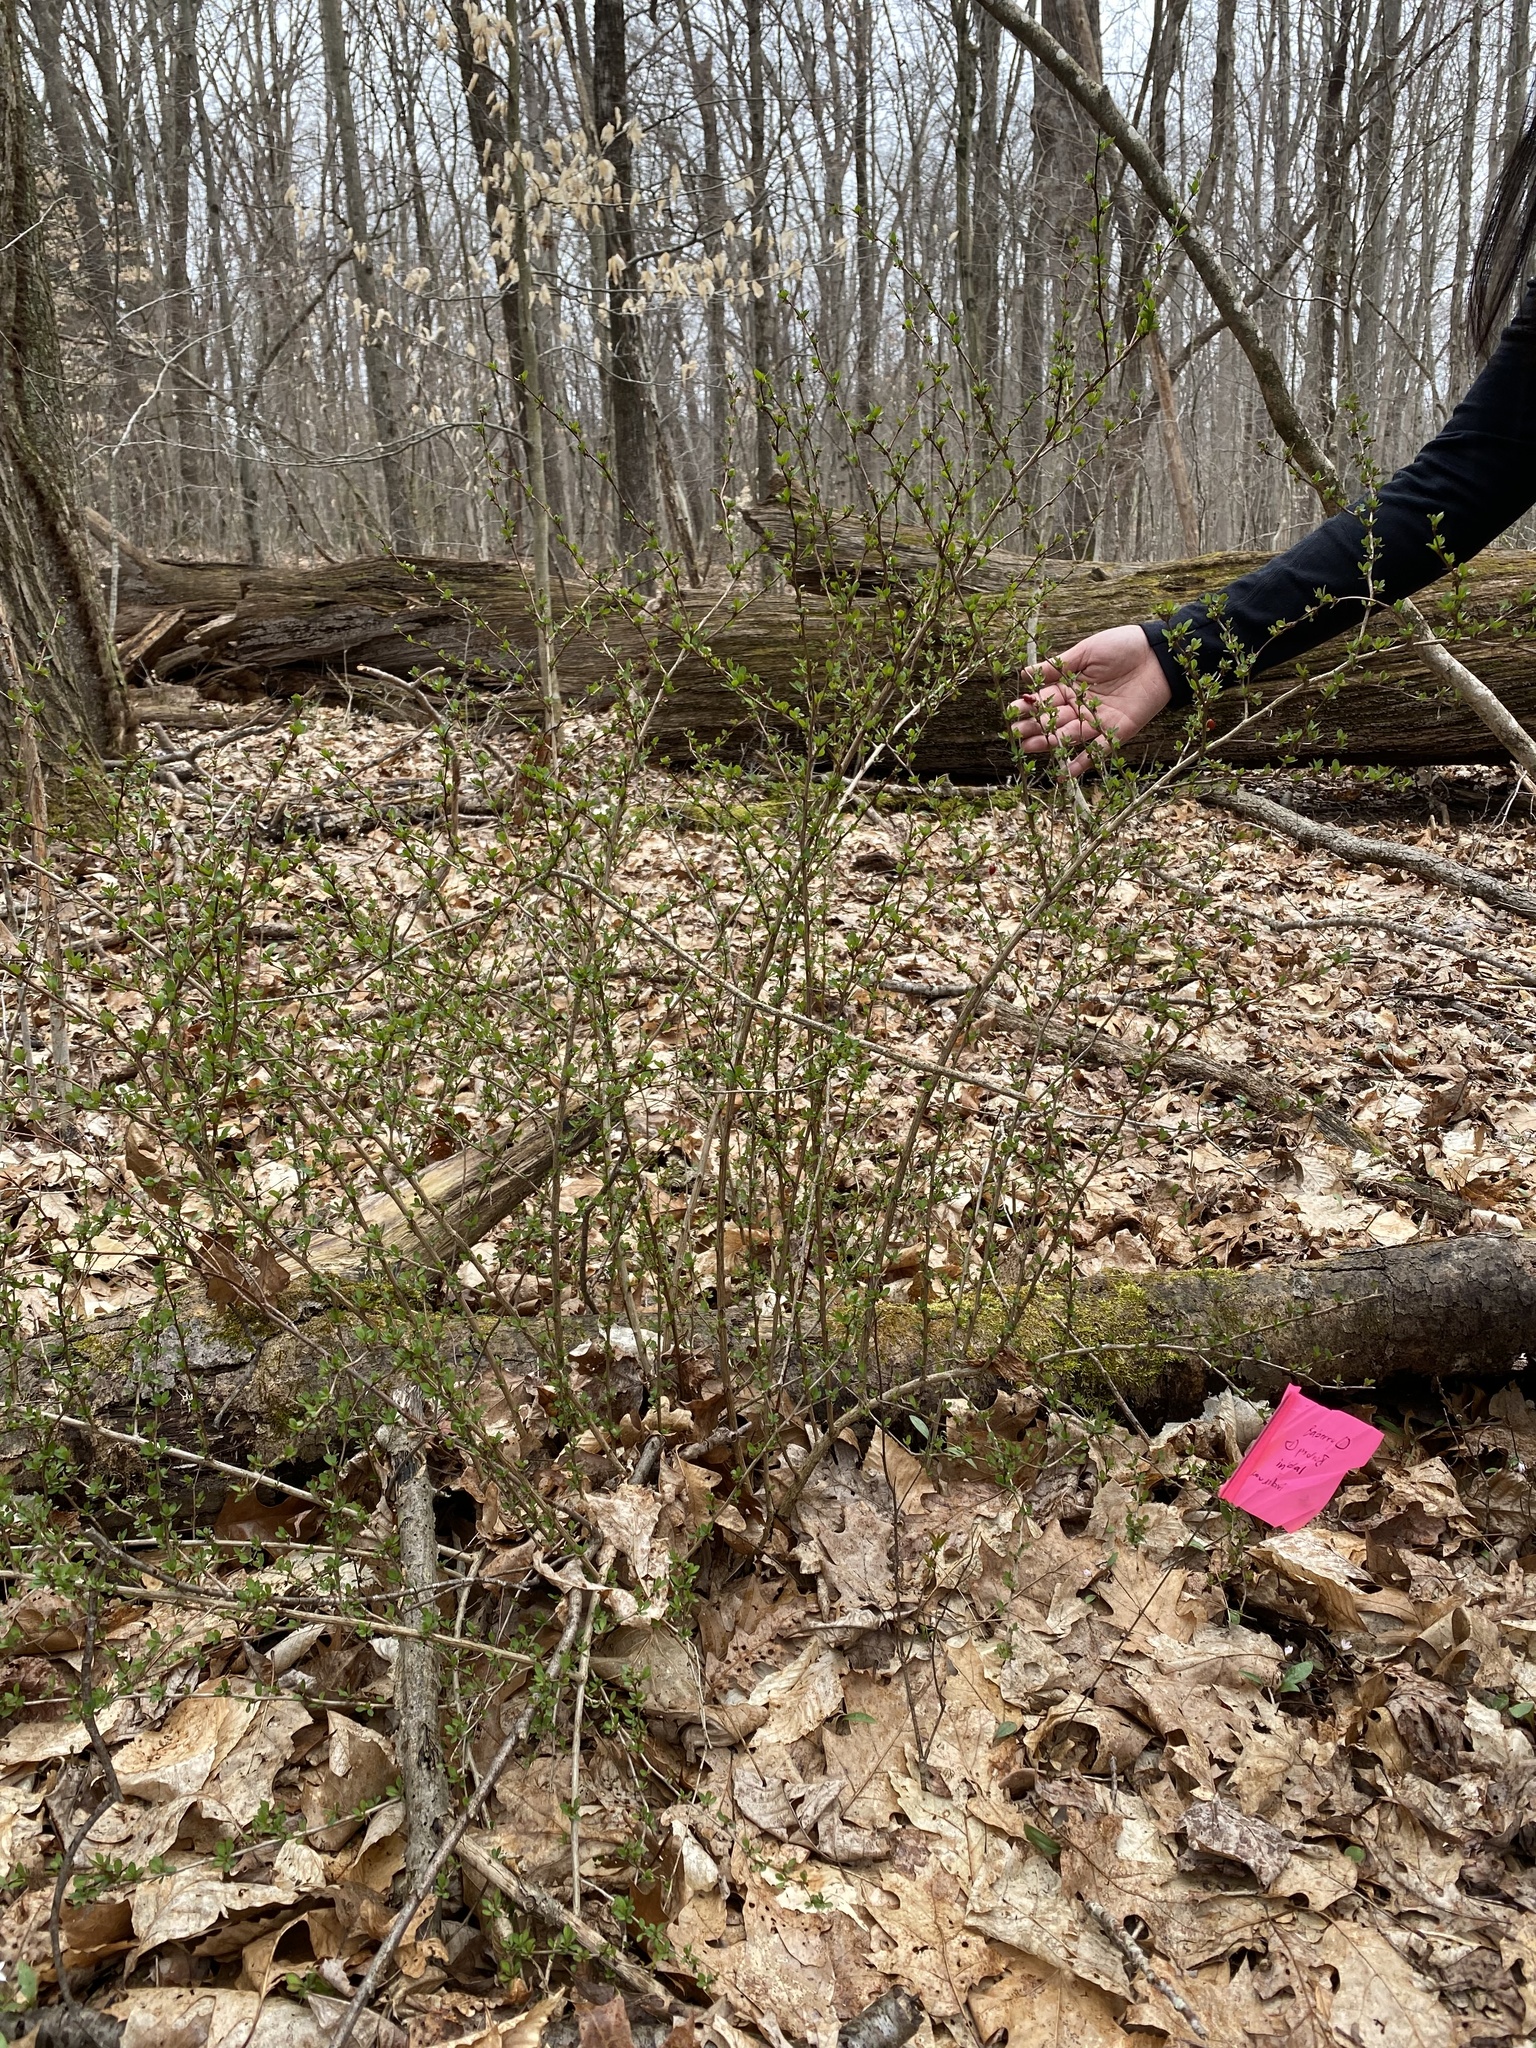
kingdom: Plantae
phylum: Tracheophyta
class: Magnoliopsida
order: Ranunculales
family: Berberidaceae
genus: Berberis
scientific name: Berberis thunbergii
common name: Japanese barberry
